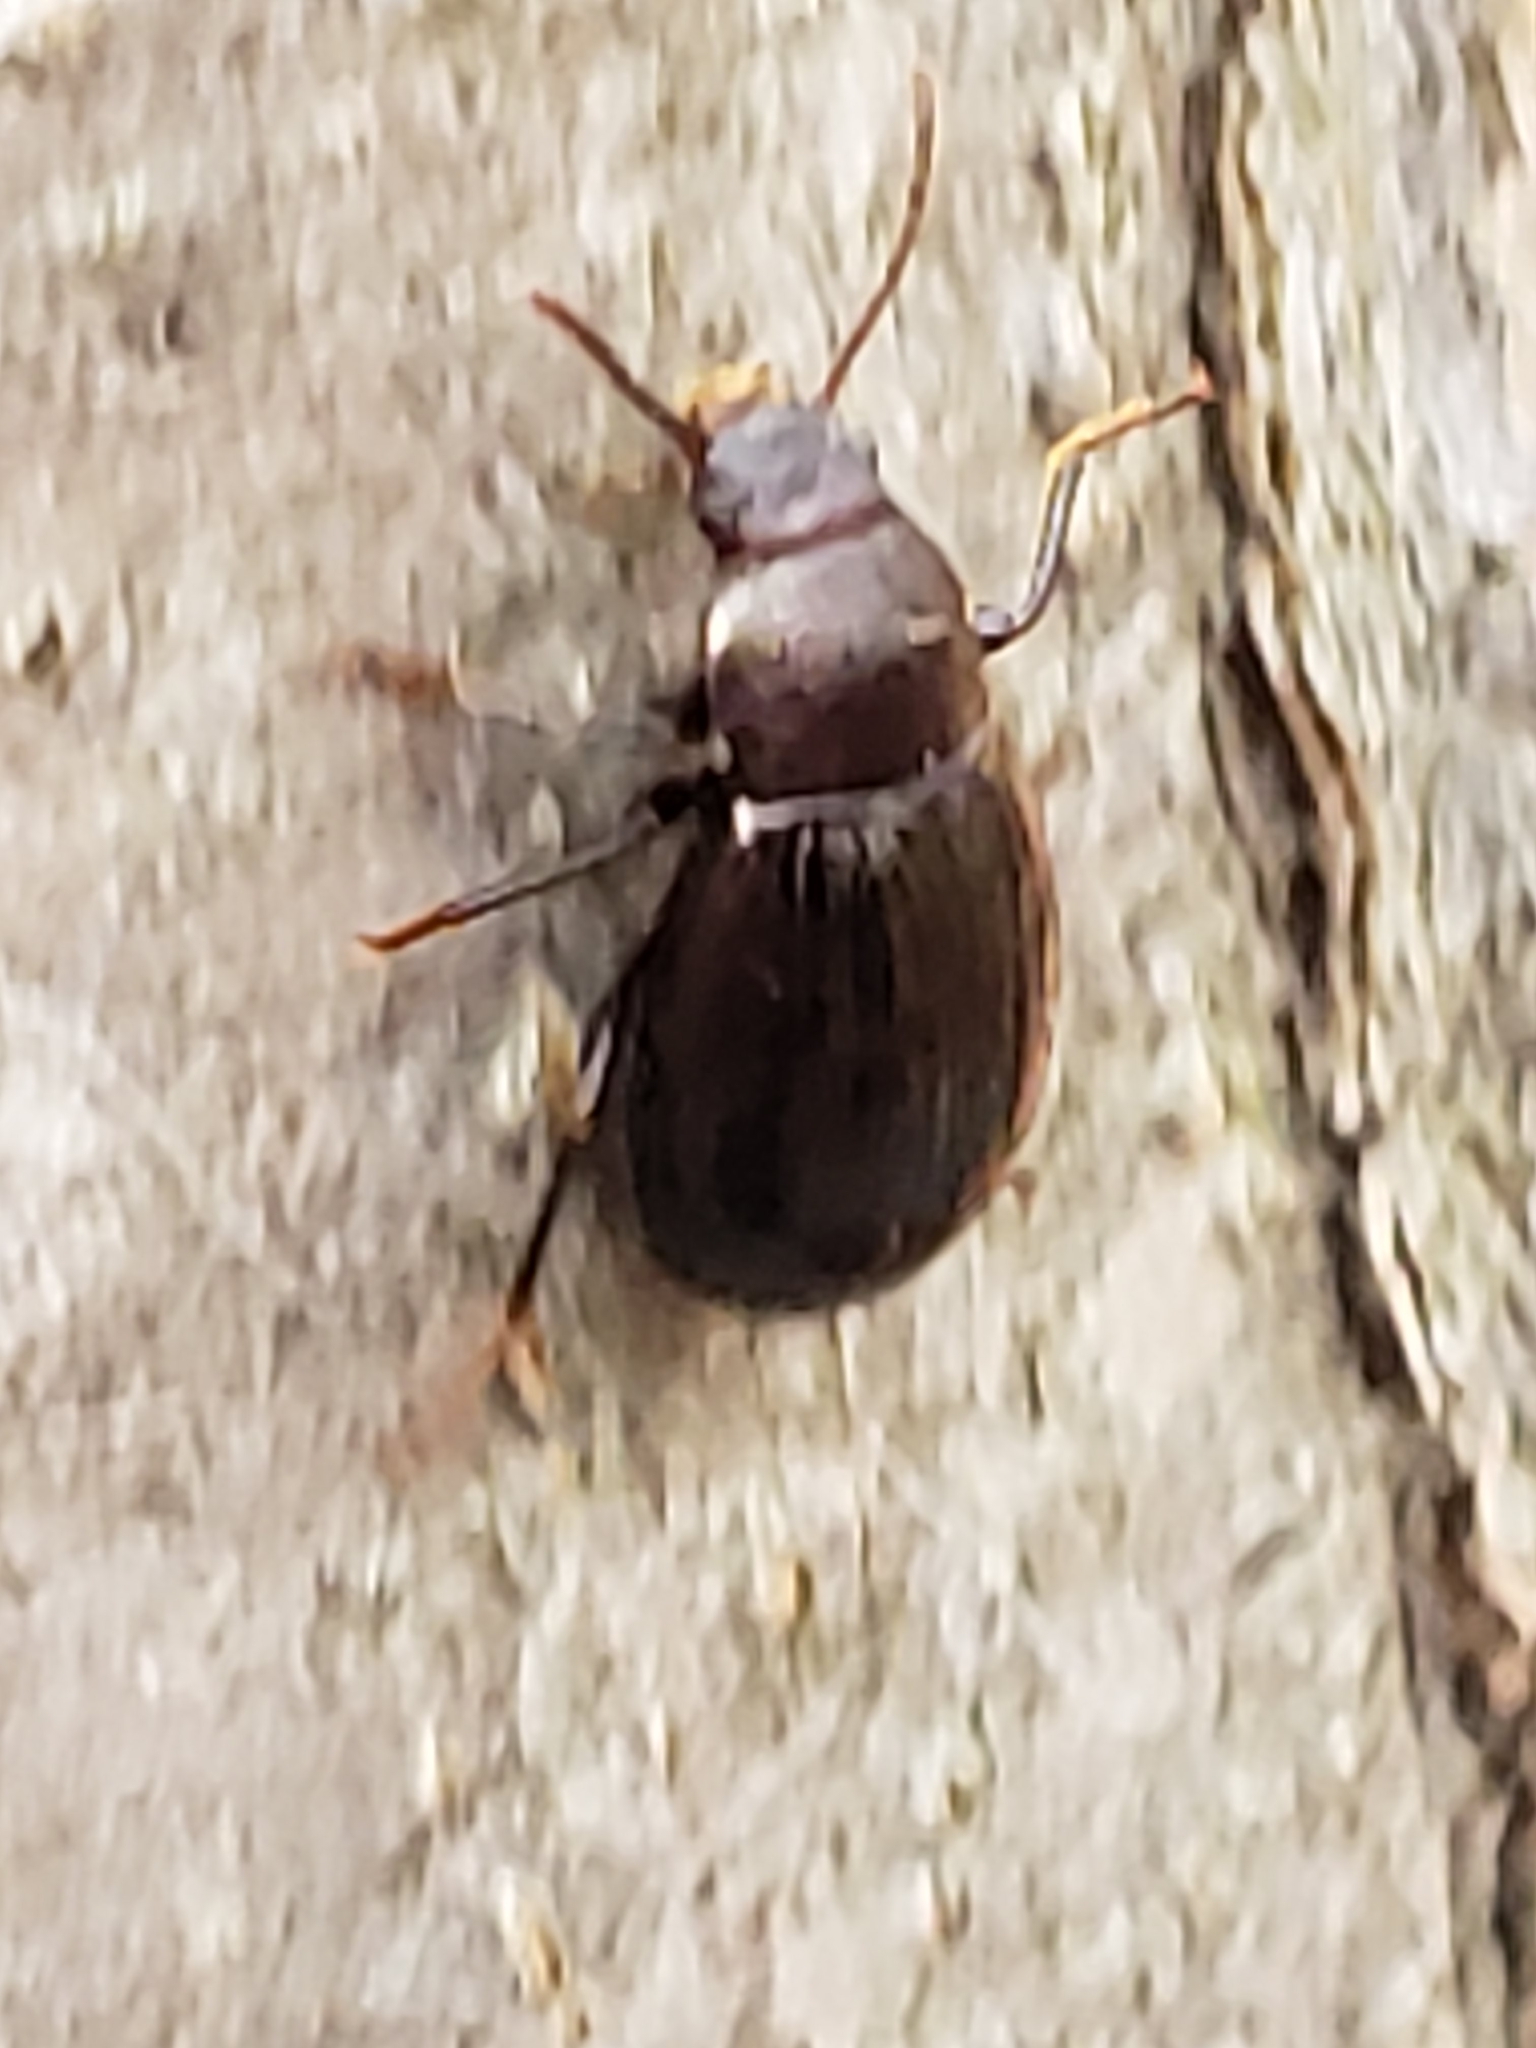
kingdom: Animalia
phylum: Arthropoda
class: Insecta
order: Coleoptera
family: Tenebrionidae
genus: Nalassus
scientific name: Nalassus aereus
